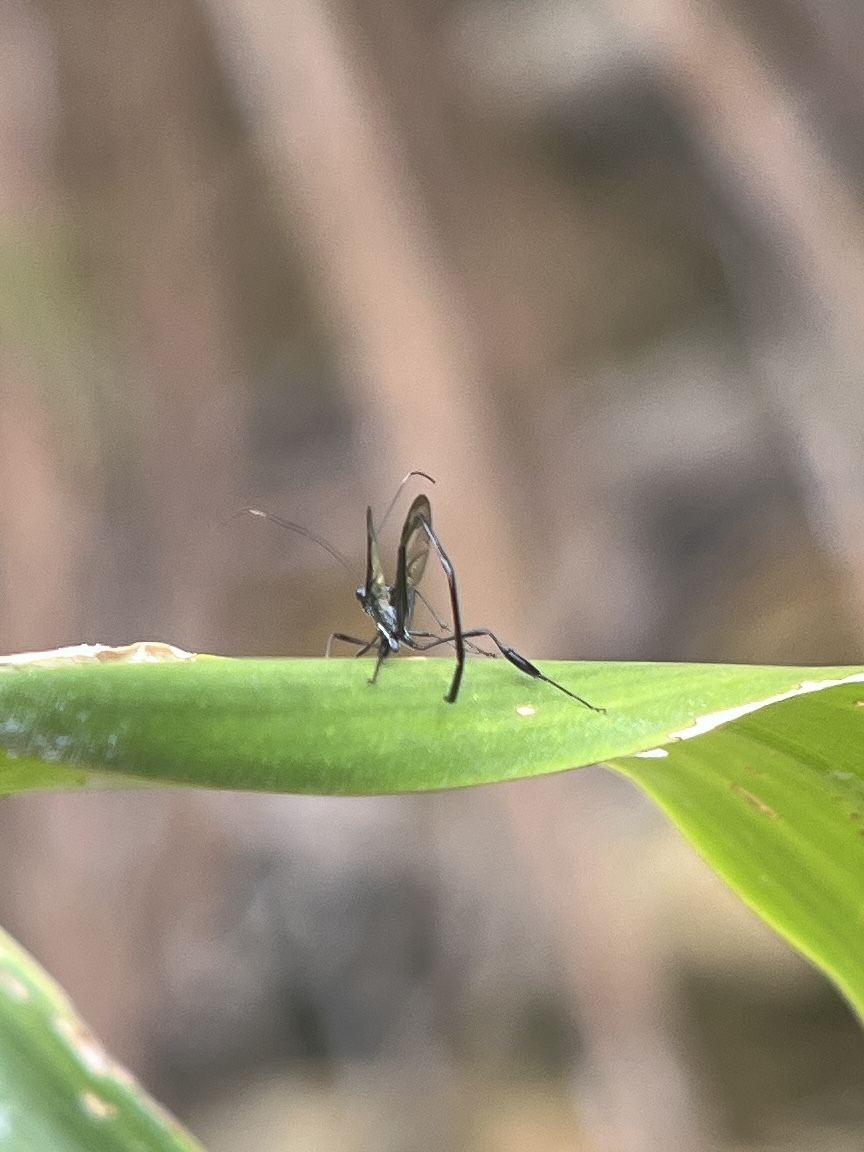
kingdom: Animalia
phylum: Arthropoda
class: Insecta
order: Hymenoptera
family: Pelecinidae
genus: Pelecinus
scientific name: Pelecinus polyturator
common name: American pelecinid wasp
